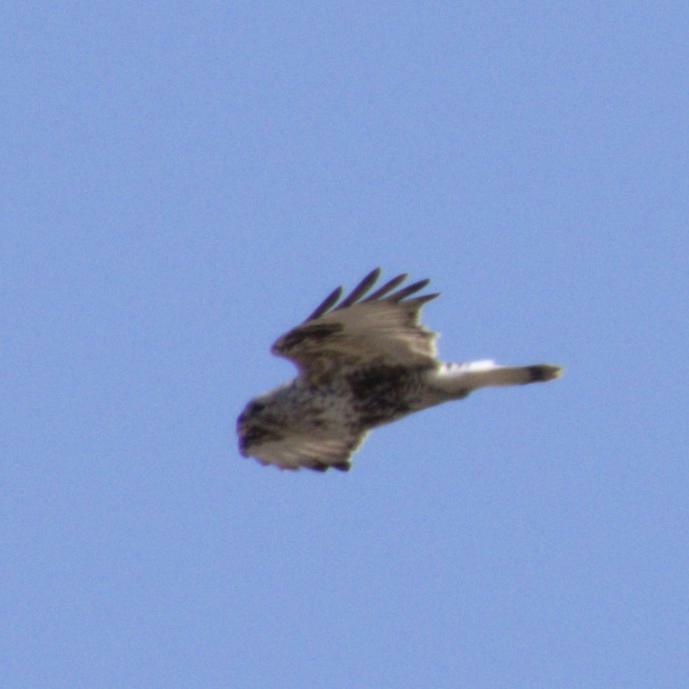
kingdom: Animalia
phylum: Chordata
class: Aves
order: Accipitriformes
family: Accipitridae
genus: Buteo
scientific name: Buteo lagopus
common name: Rough-legged buzzard
